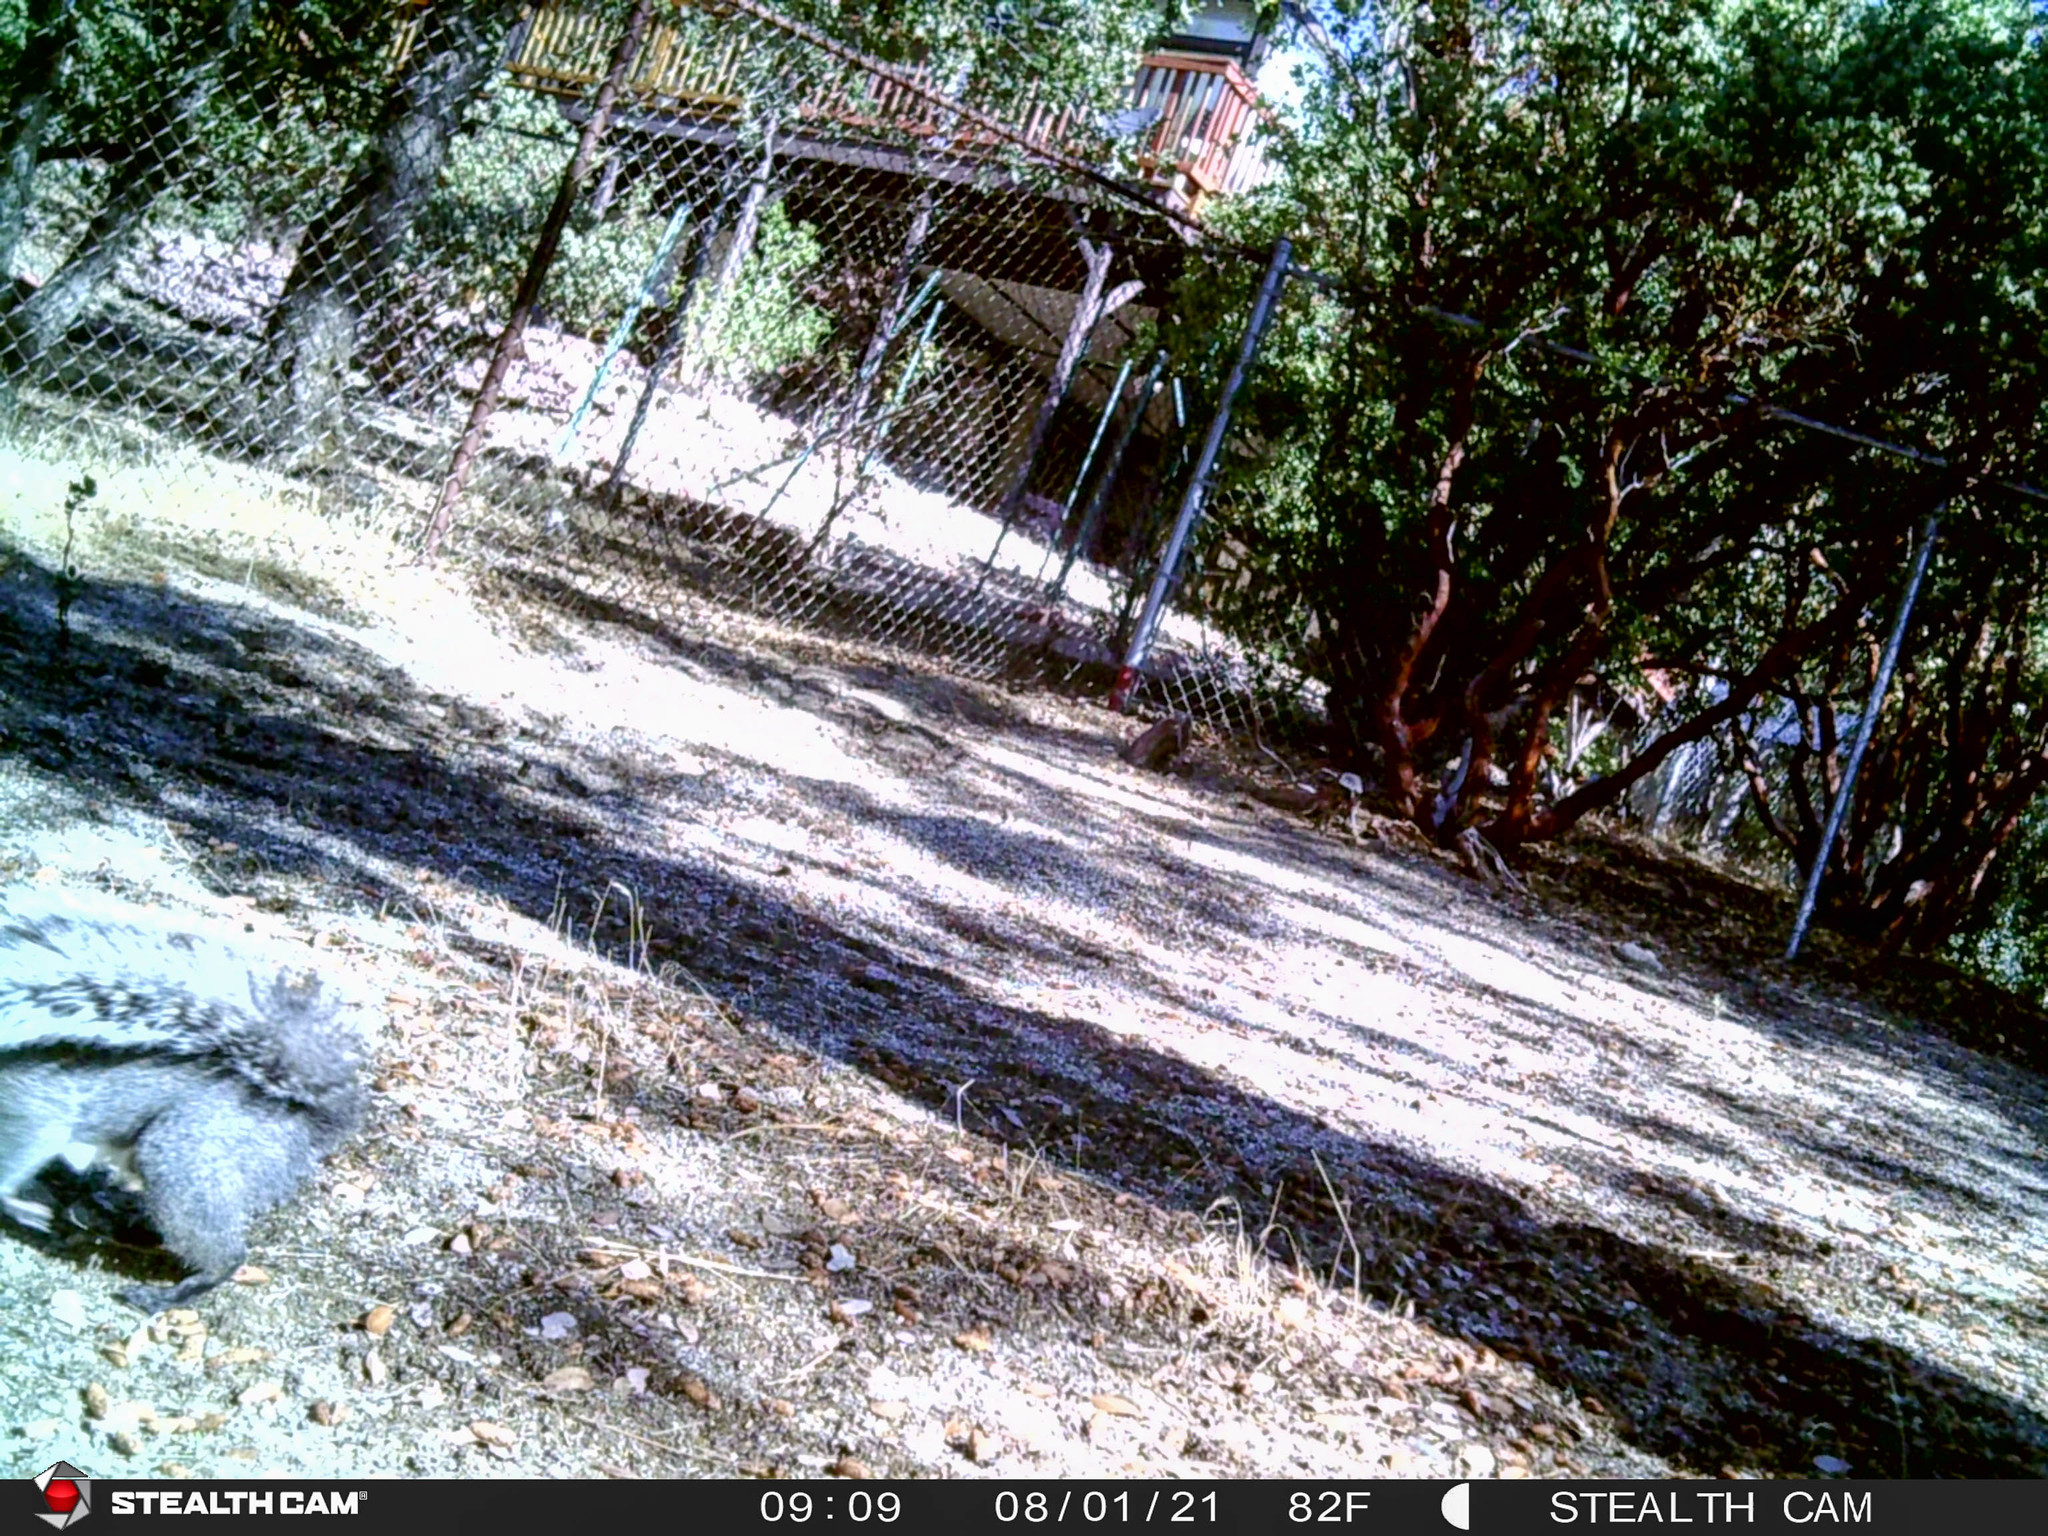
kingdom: Animalia
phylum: Chordata
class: Mammalia
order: Rodentia
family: Sciuridae
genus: Sciurus
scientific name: Sciurus griseus
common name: Western gray squirrel
